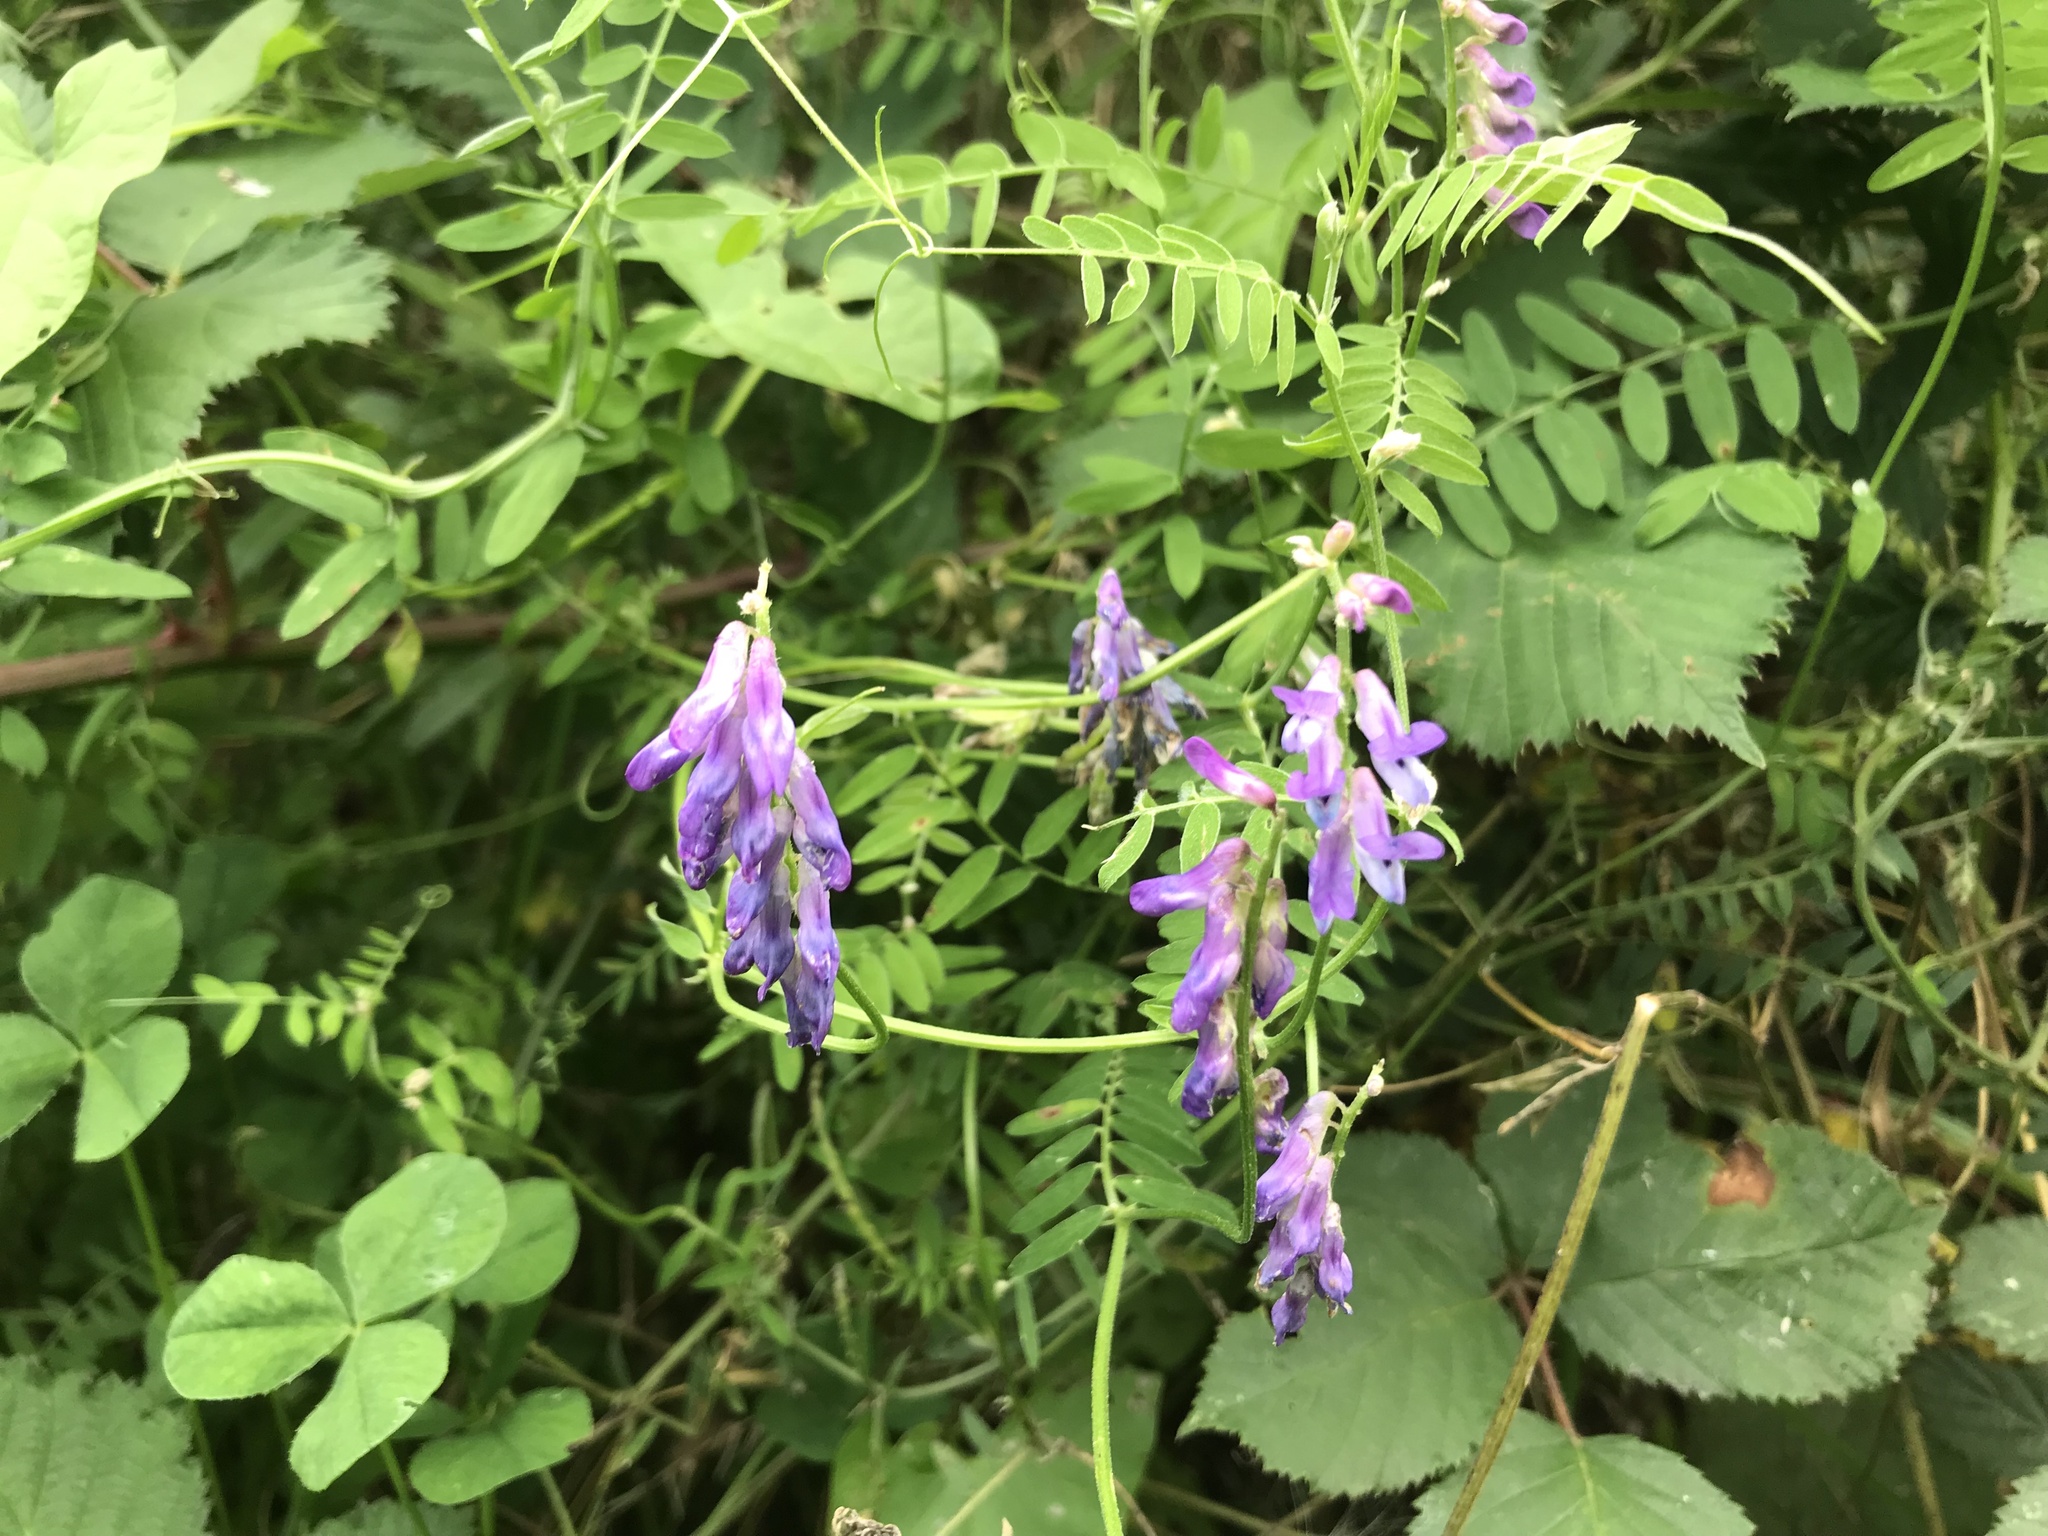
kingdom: Plantae
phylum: Tracheophyta
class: Magnoliopsida
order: Fabales
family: Fabaceae
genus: Vicia
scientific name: Vicia cracca
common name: Bird vetch
